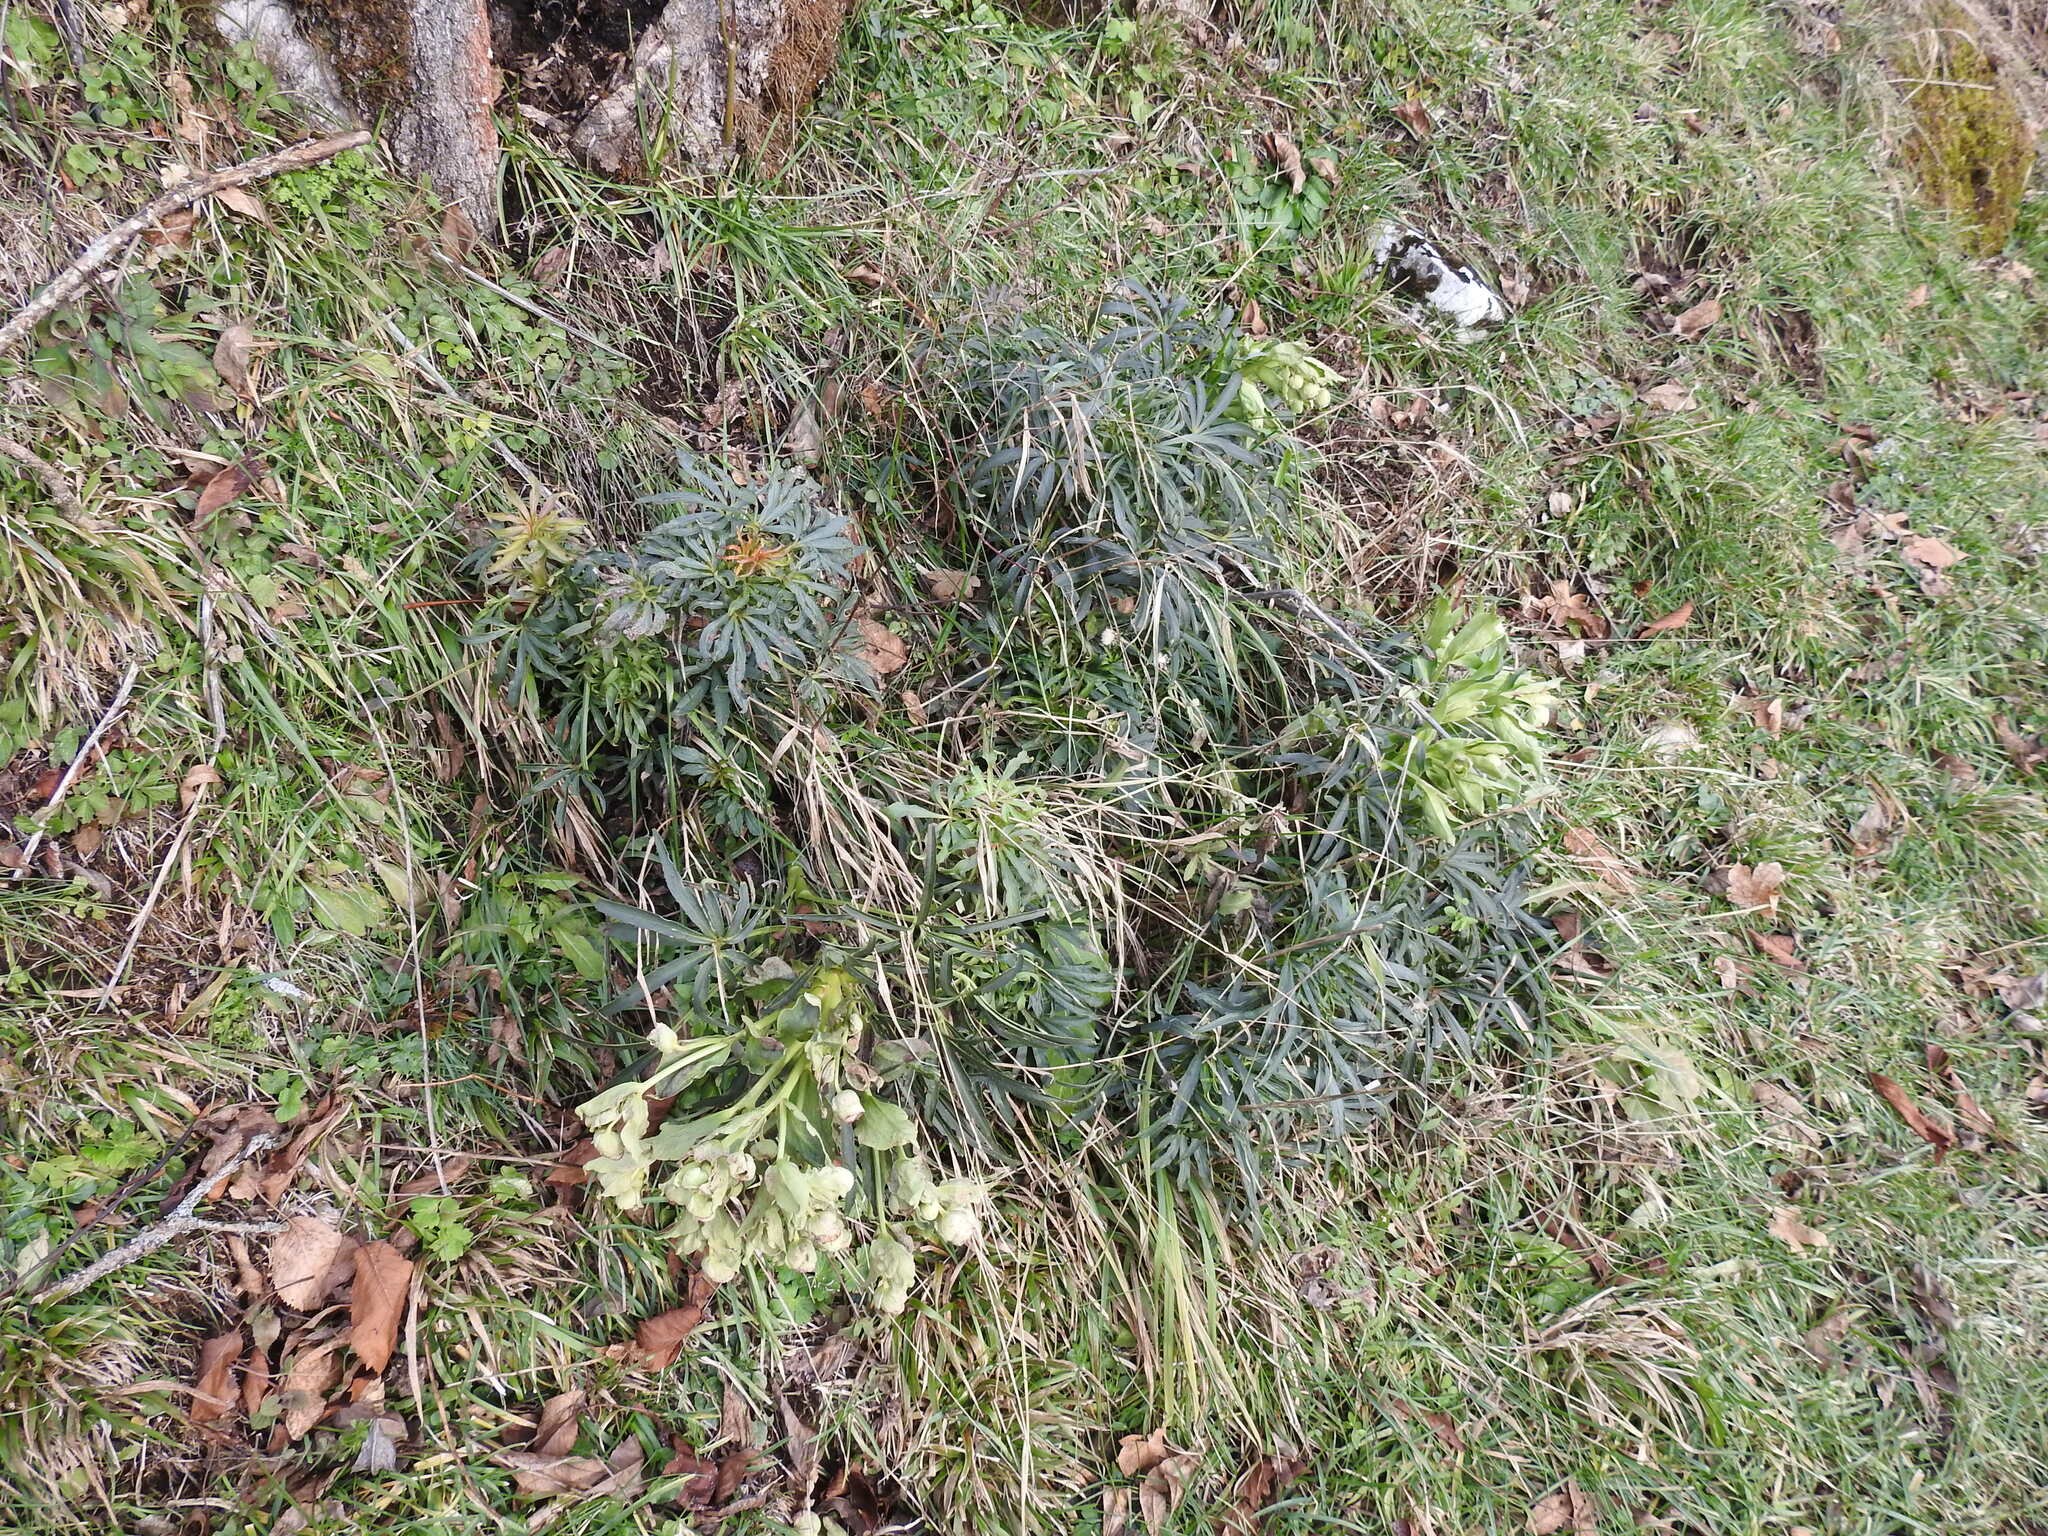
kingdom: Plantae
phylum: Tracheophyta
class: Magnoliopsida
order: Ranunculales
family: Ranunculaceae
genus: Helleborus
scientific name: Helleborus foetidus
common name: Stinking hellebore
